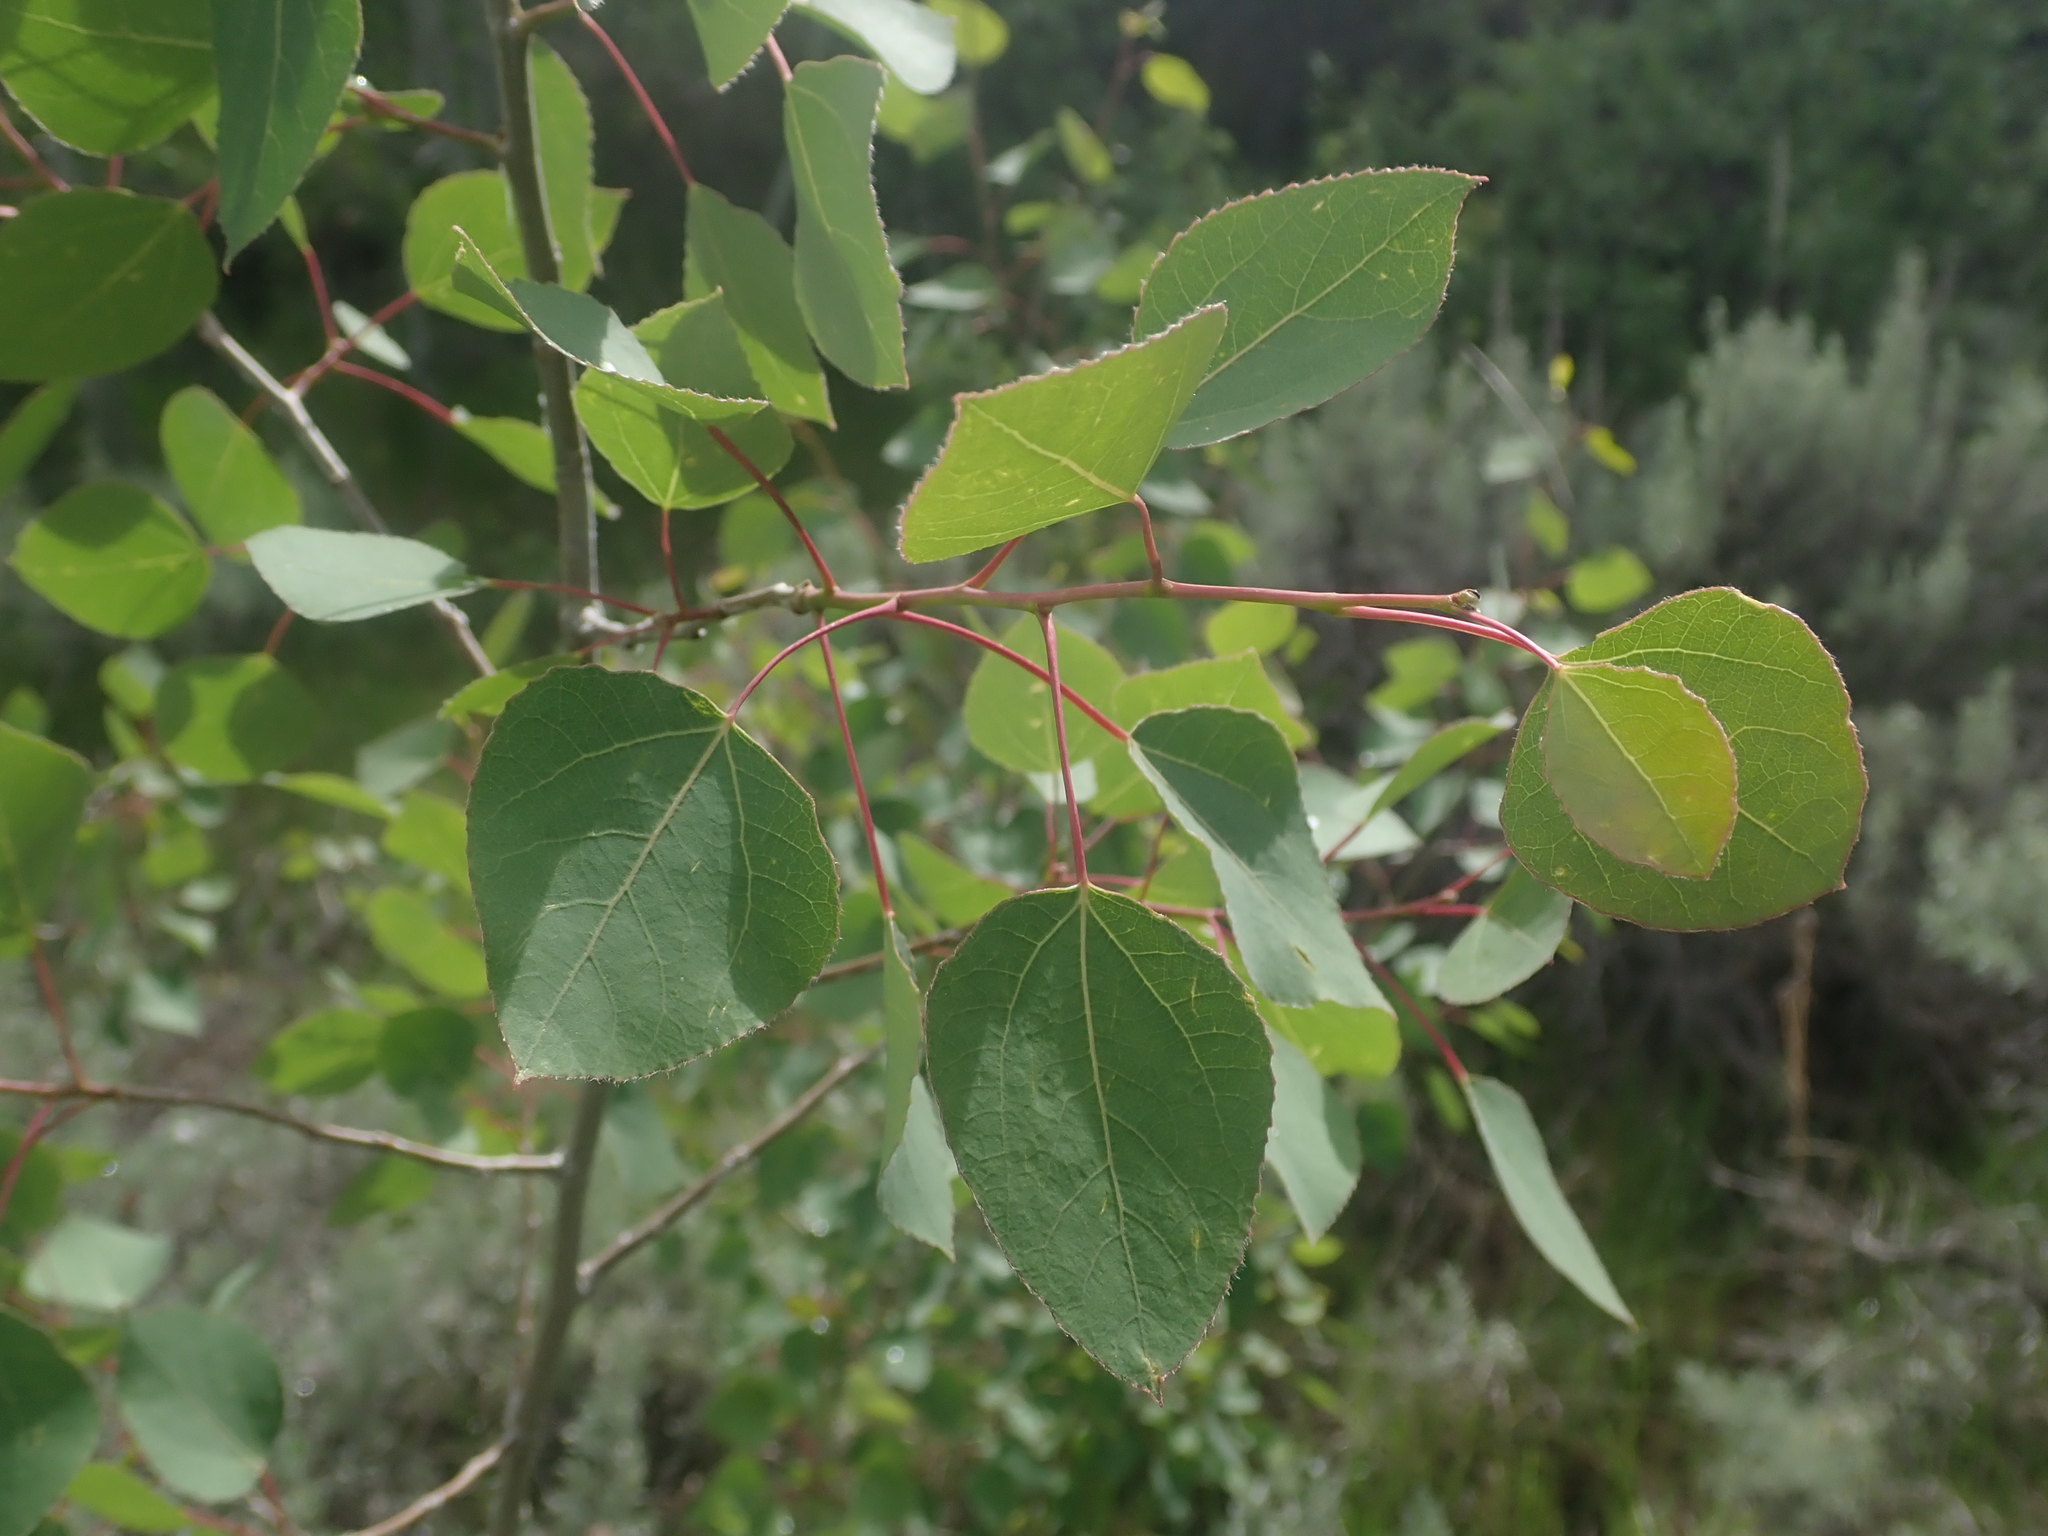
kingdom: Plantae
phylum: Tracheophyta
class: Magnoliopsida
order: Malpighiales
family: Salicaceae
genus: Populus
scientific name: Populus tremuloides
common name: Quaking aspen
